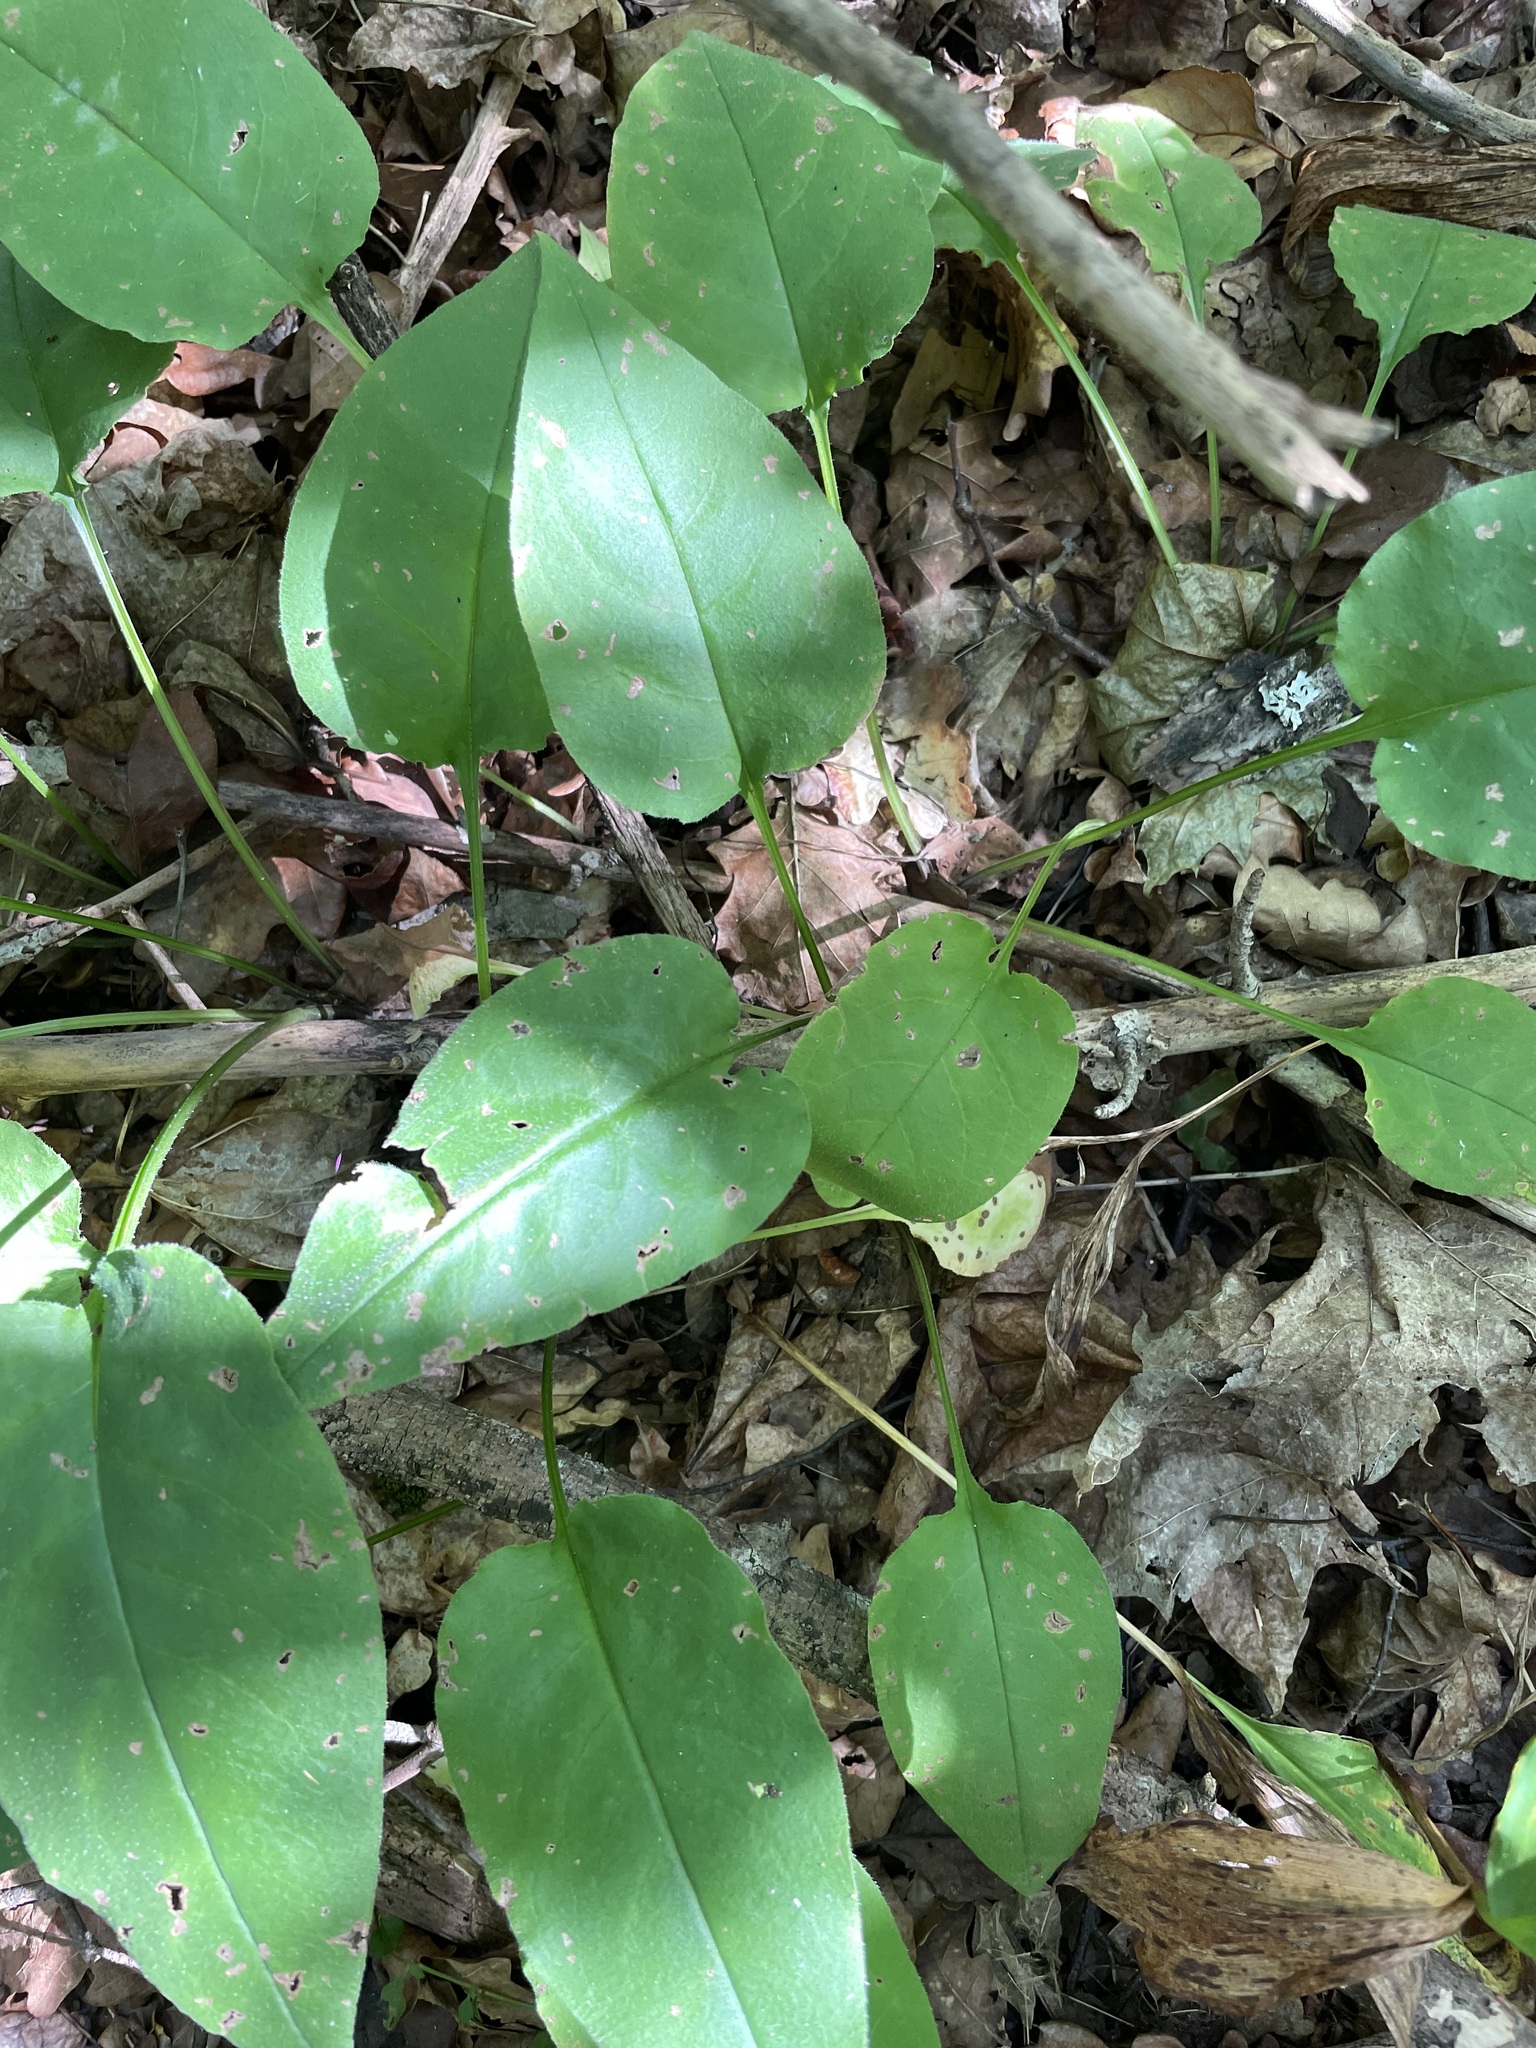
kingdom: Plantae
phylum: Tracheophyta
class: Magnoliopsida
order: Boraginales
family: Boraginaceae
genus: Pulmonaria
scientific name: Pulmonaria obscura
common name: Suffolk lungwort
